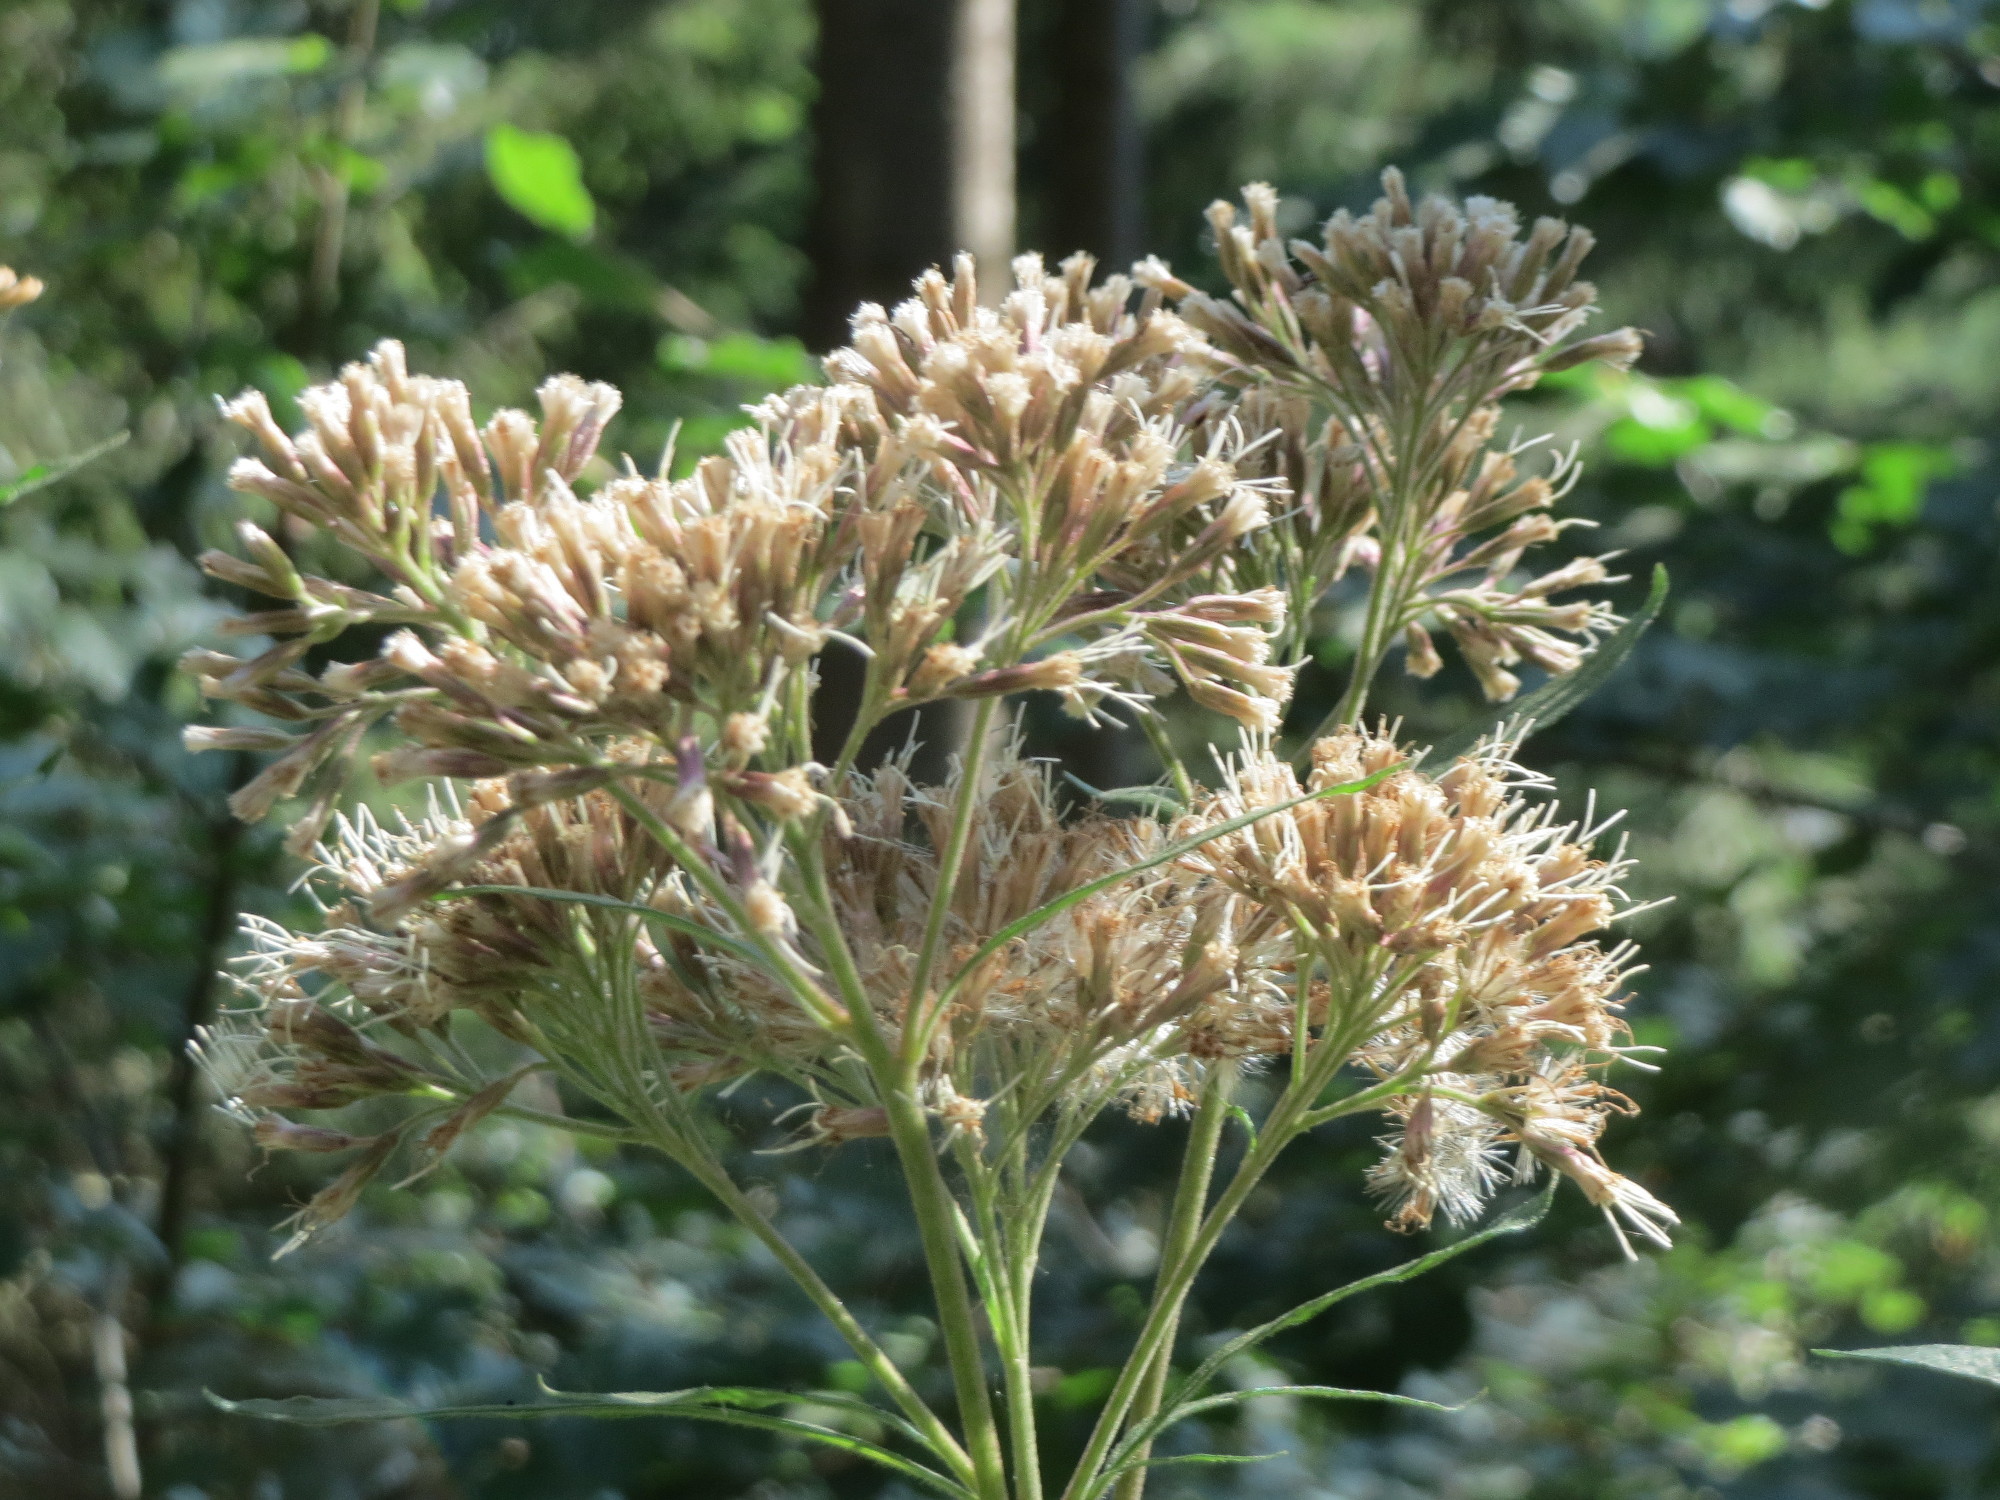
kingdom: Plantae
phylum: Tracheophyta
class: Magnoliopsida
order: Asterales
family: Asteraceae
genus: Eupatorium
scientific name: Eupatorium cannabinum
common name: Hemp-agrimony
